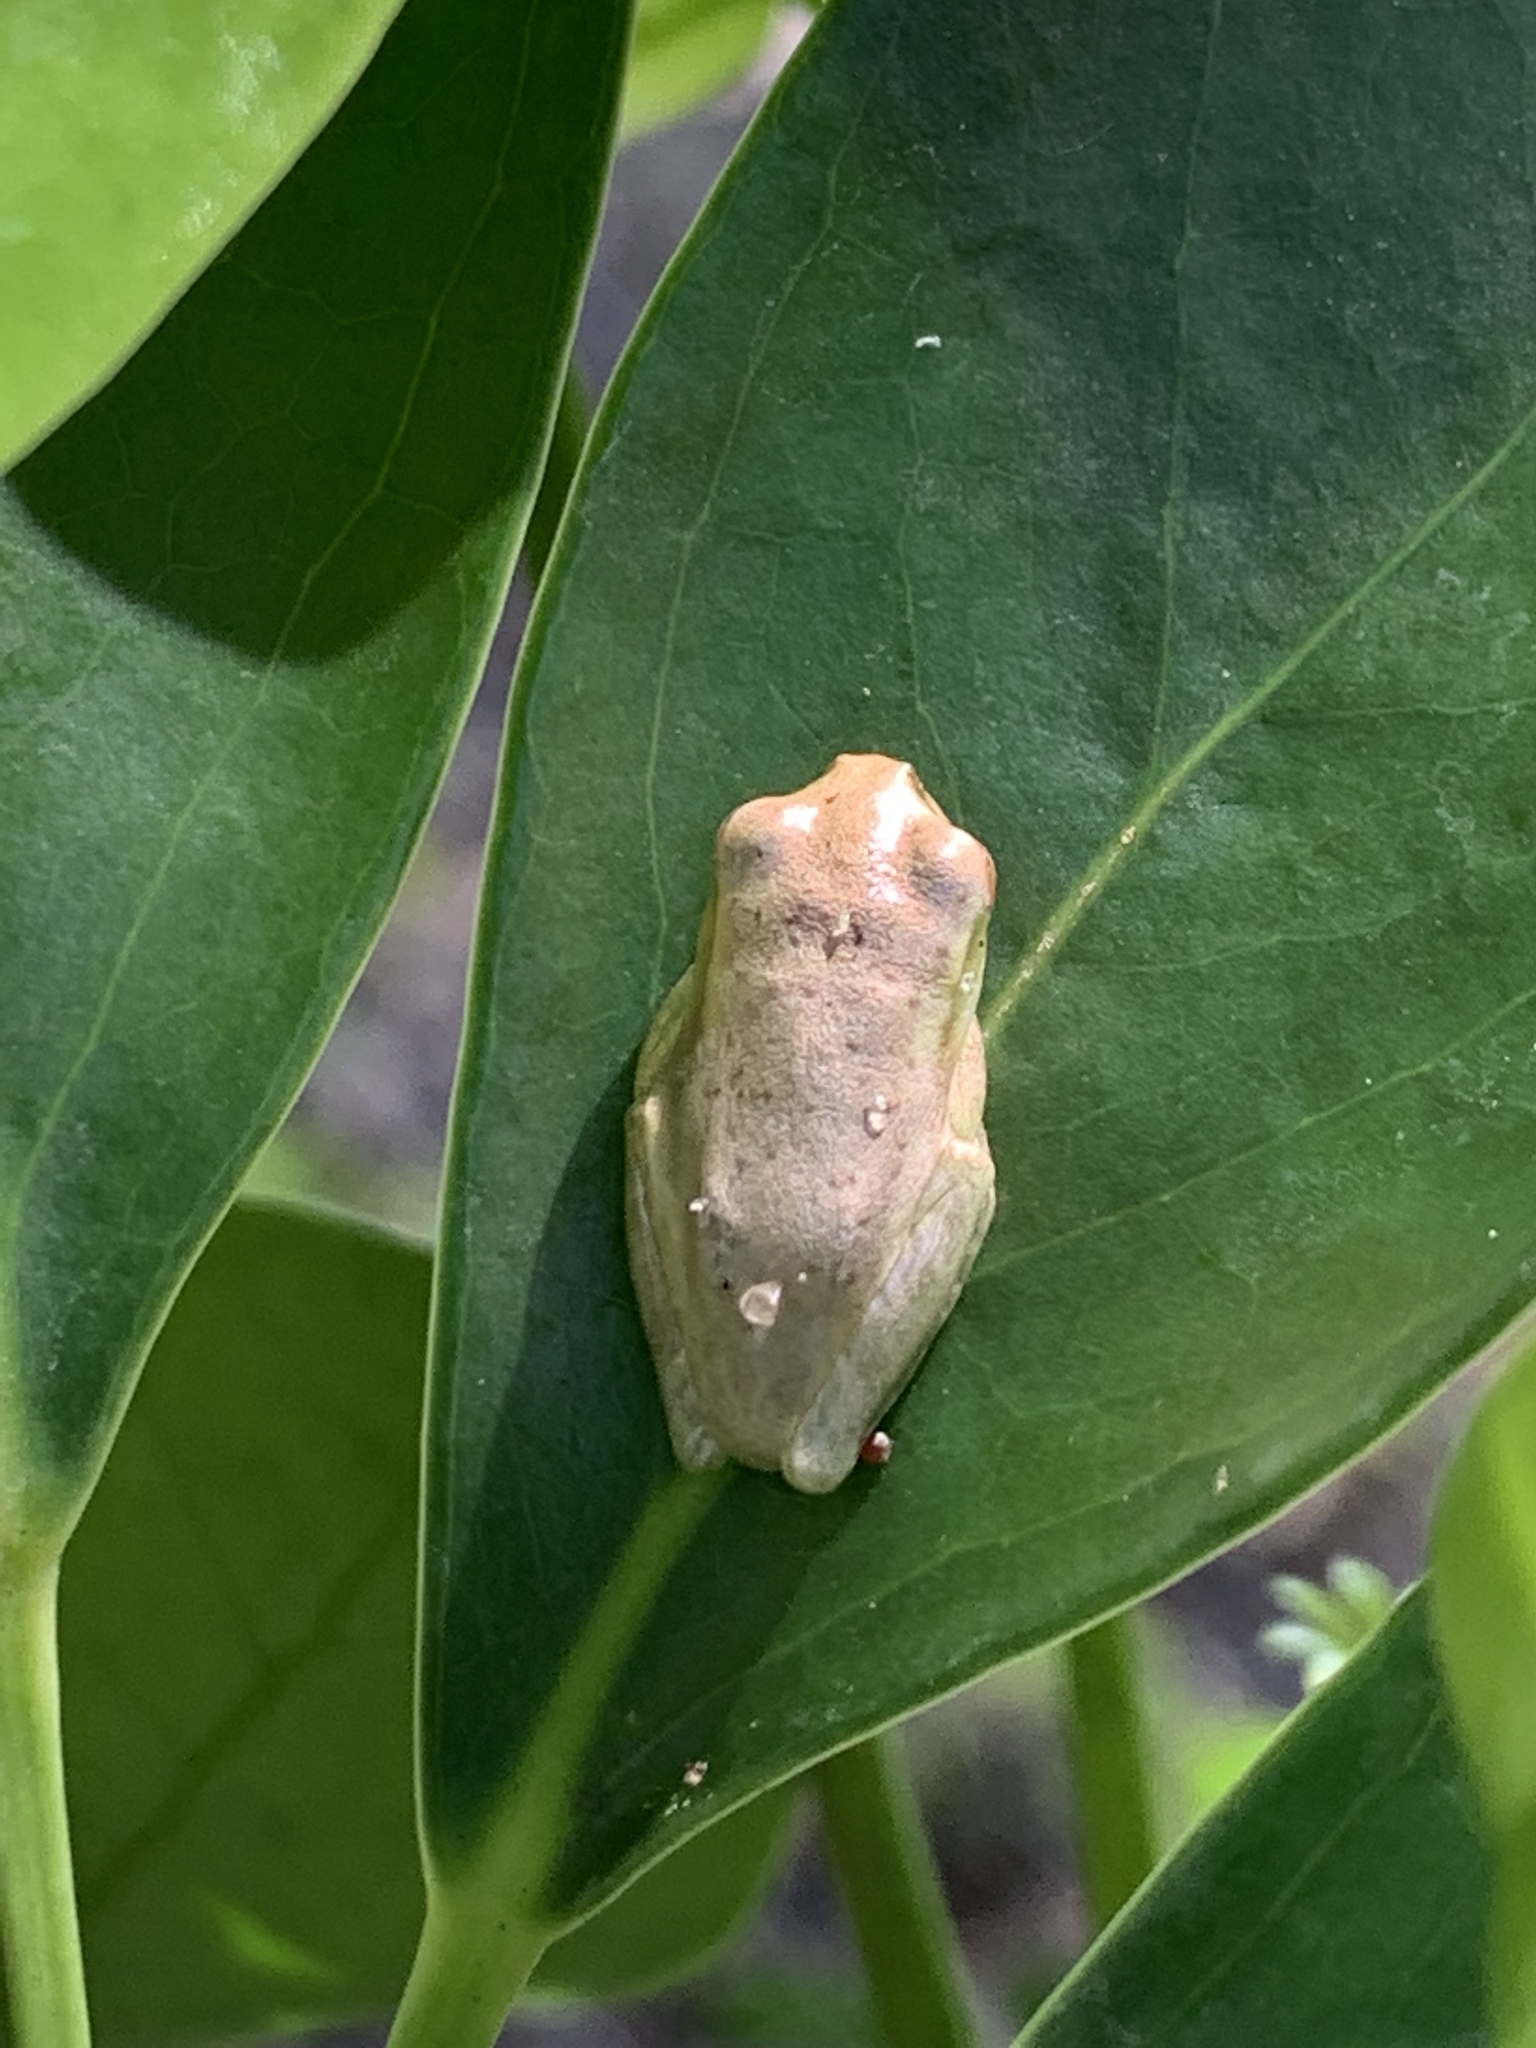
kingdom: Animalia
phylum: Chordata
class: Amphibia
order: Anura
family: Hylidae
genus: Osteopilus
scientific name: Osteopilus septentrionalis
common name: Cuban treefrog
